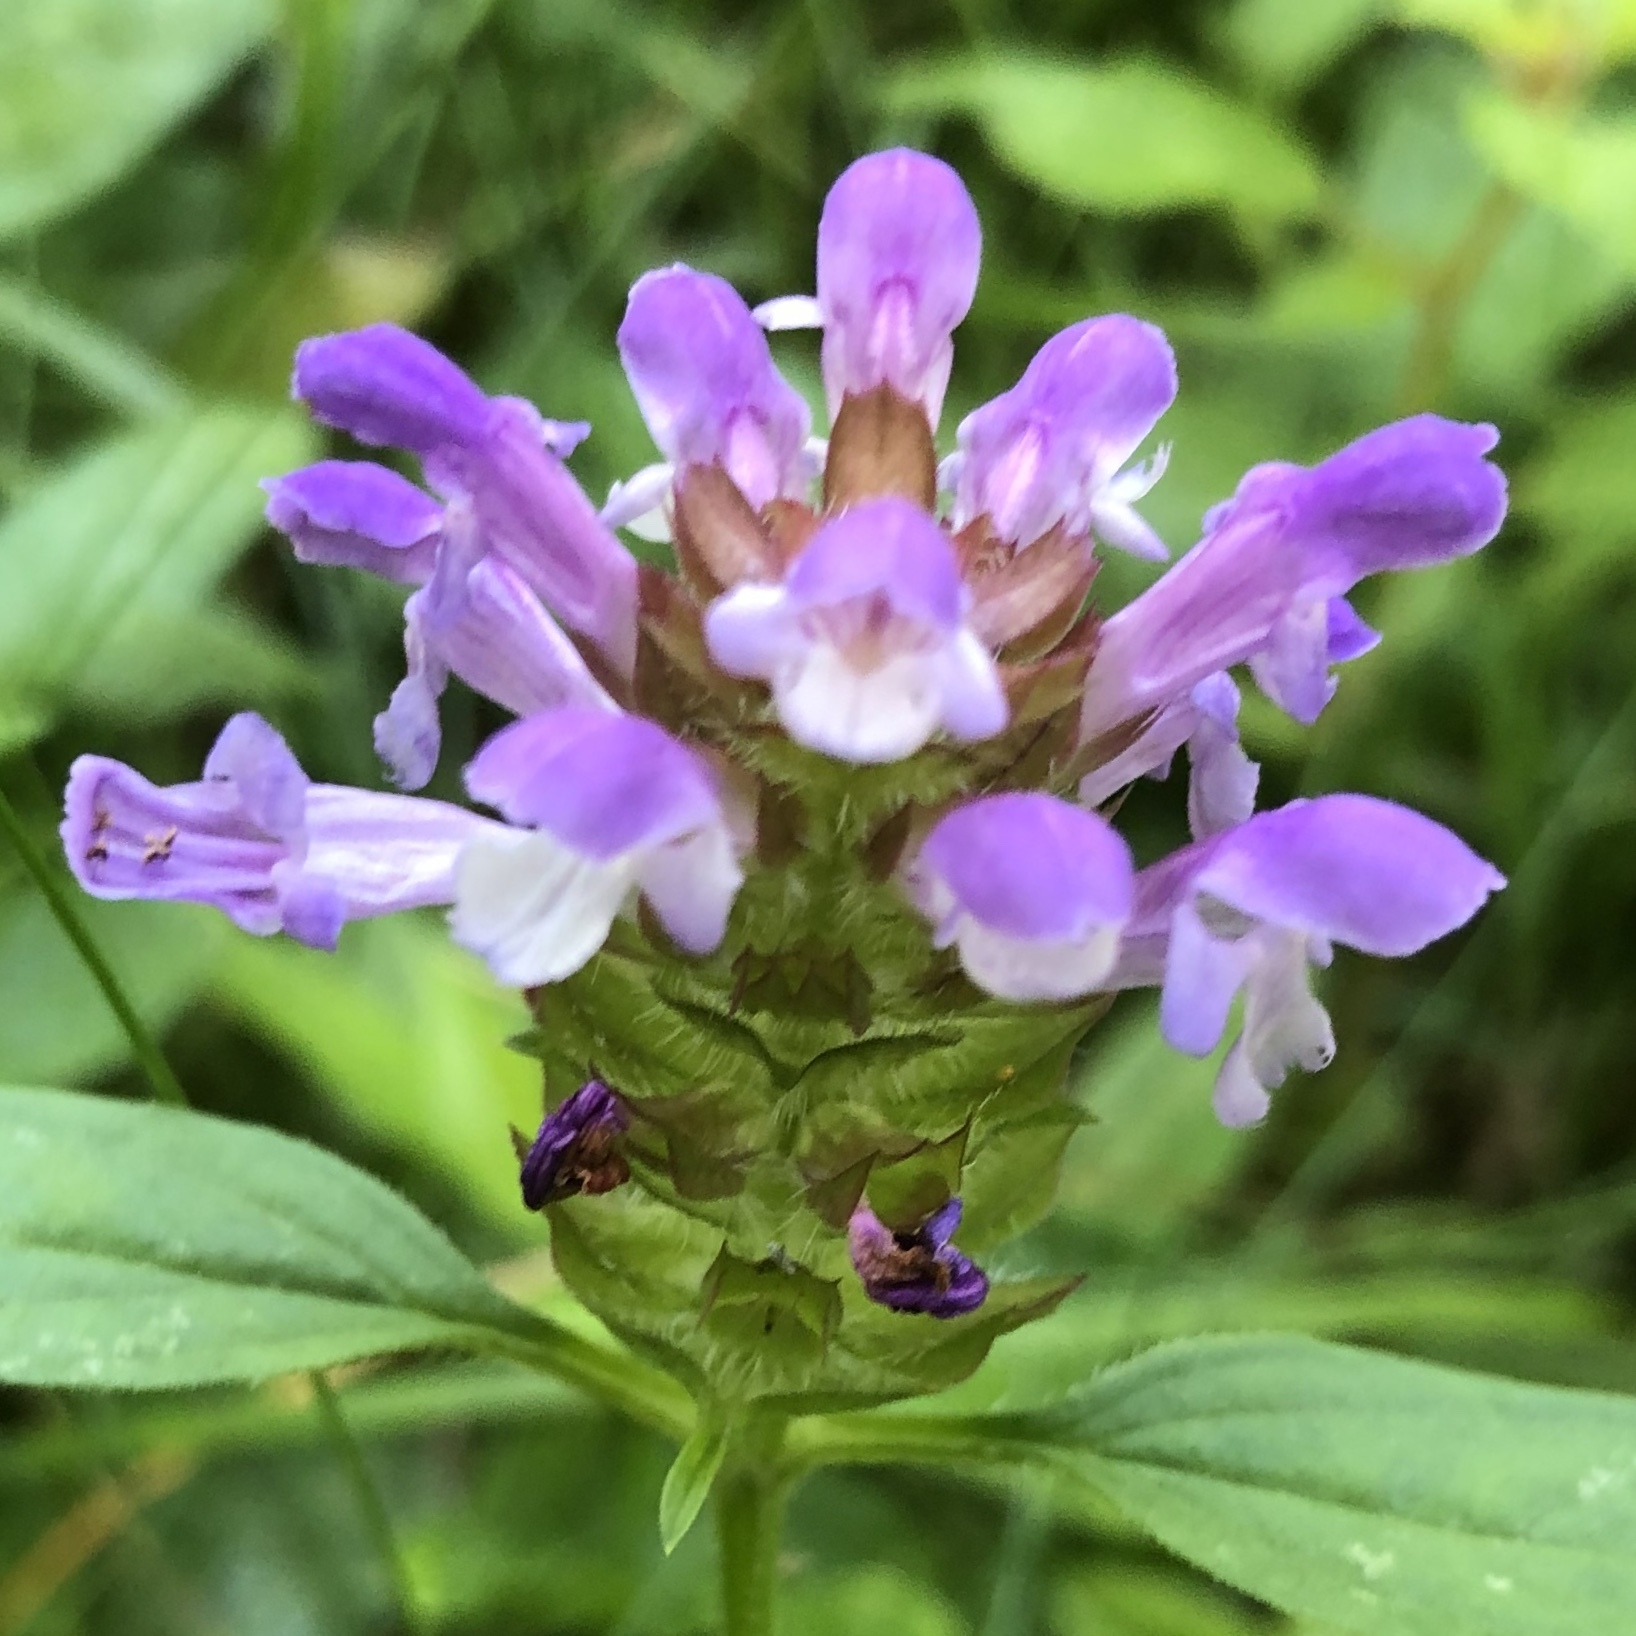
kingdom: Plantae
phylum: Tracheophyta
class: Magnoliopsida
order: Lamiales
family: Lamiaceae
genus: Prunella
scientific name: Prunella vulgaris
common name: Heal-all
